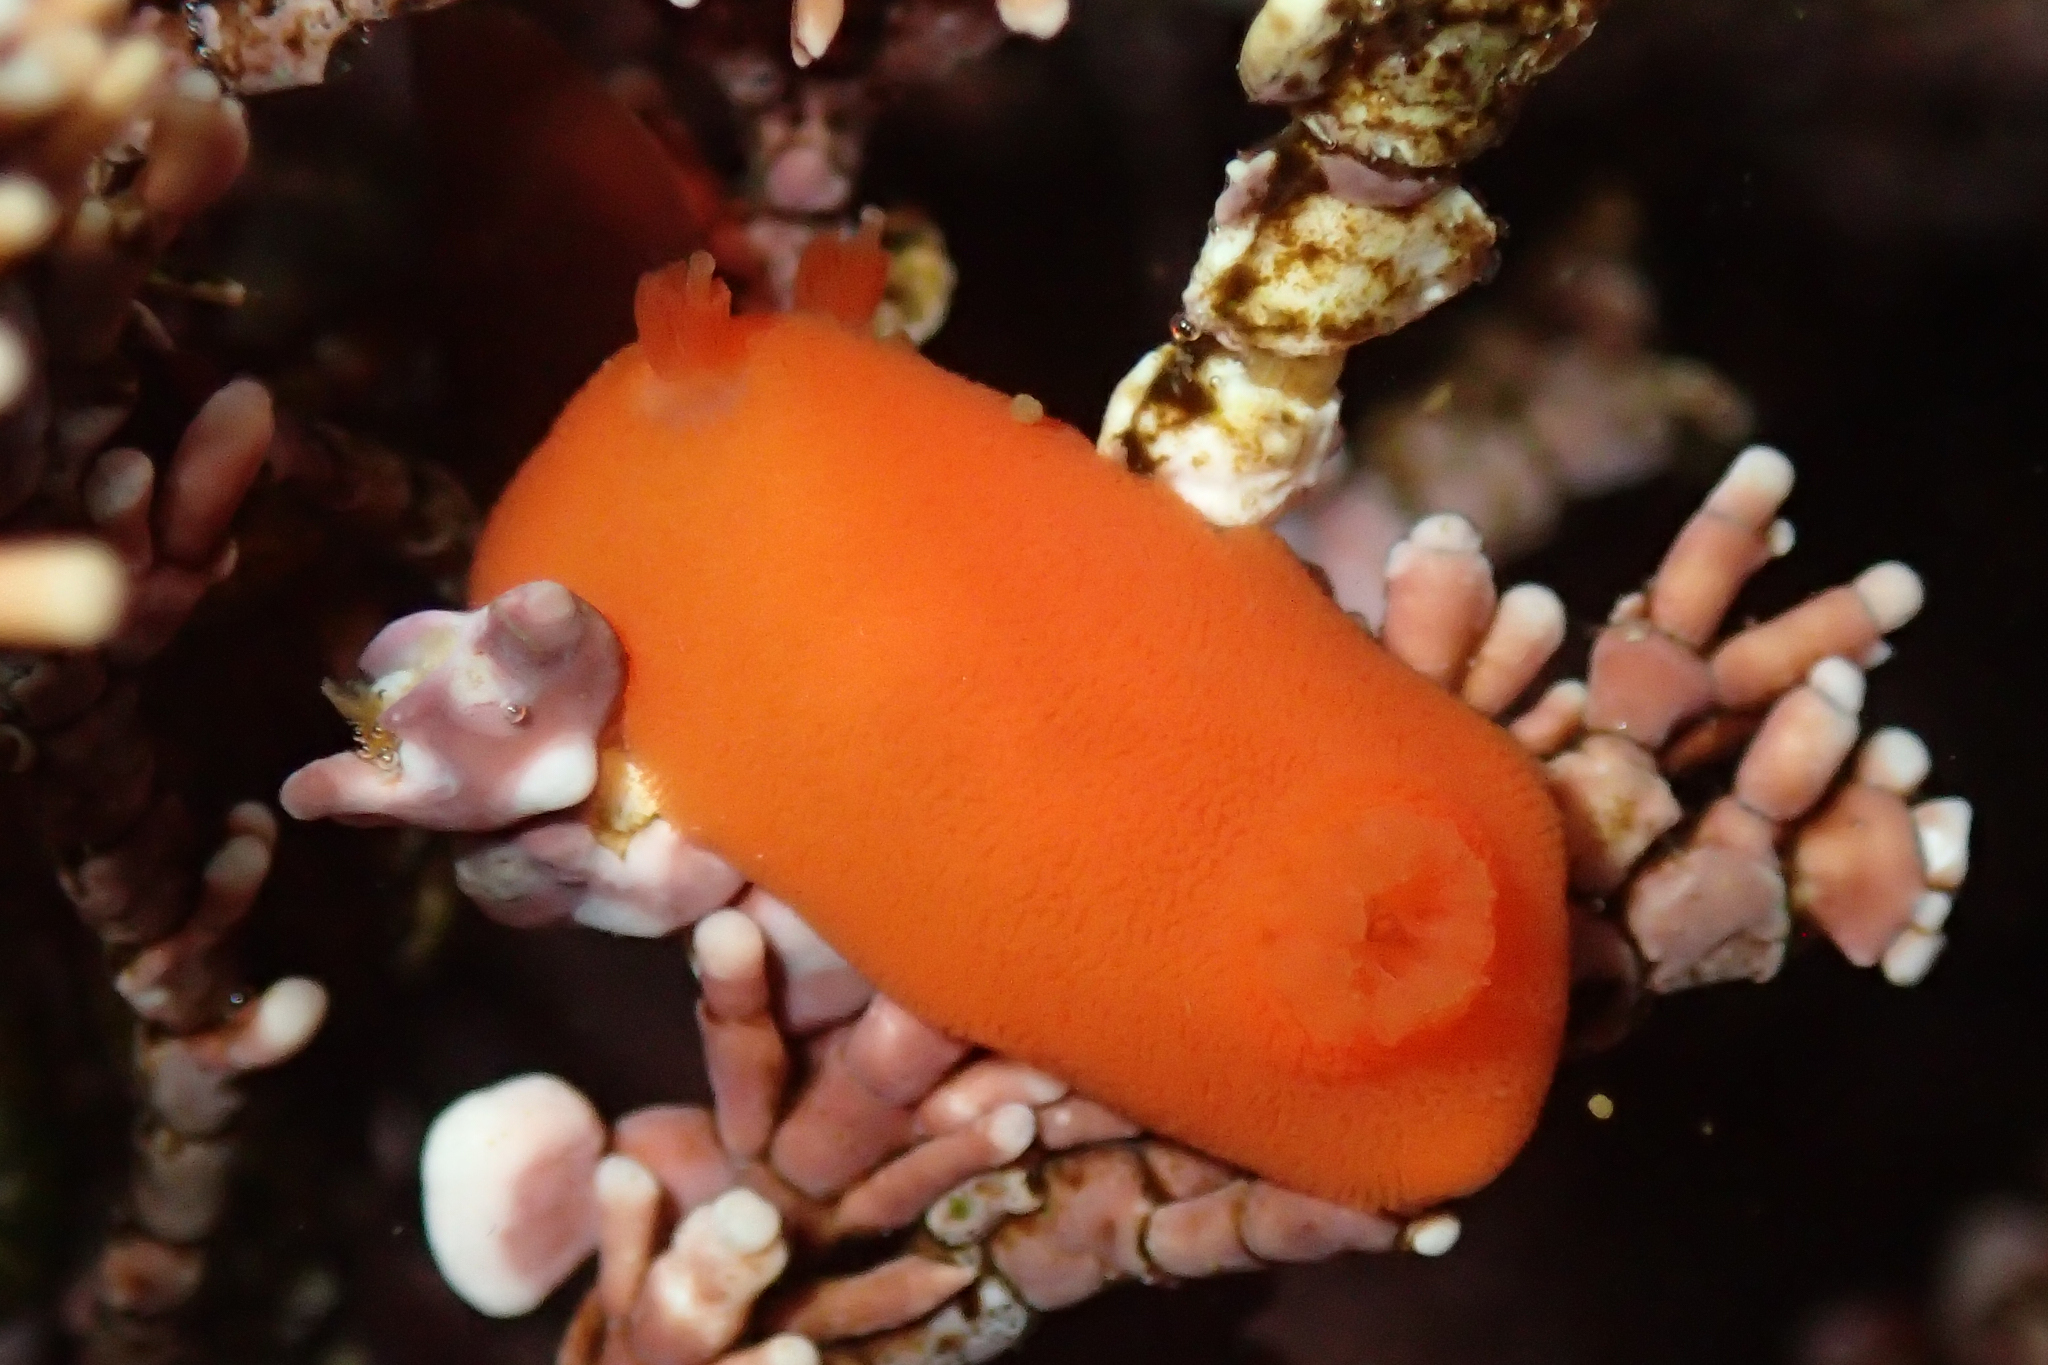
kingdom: Animalia
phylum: Mollusca
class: Gastropoda
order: Nudibranchia
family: Discodorididae
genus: Rostanga
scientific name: Rostanga pulchra
